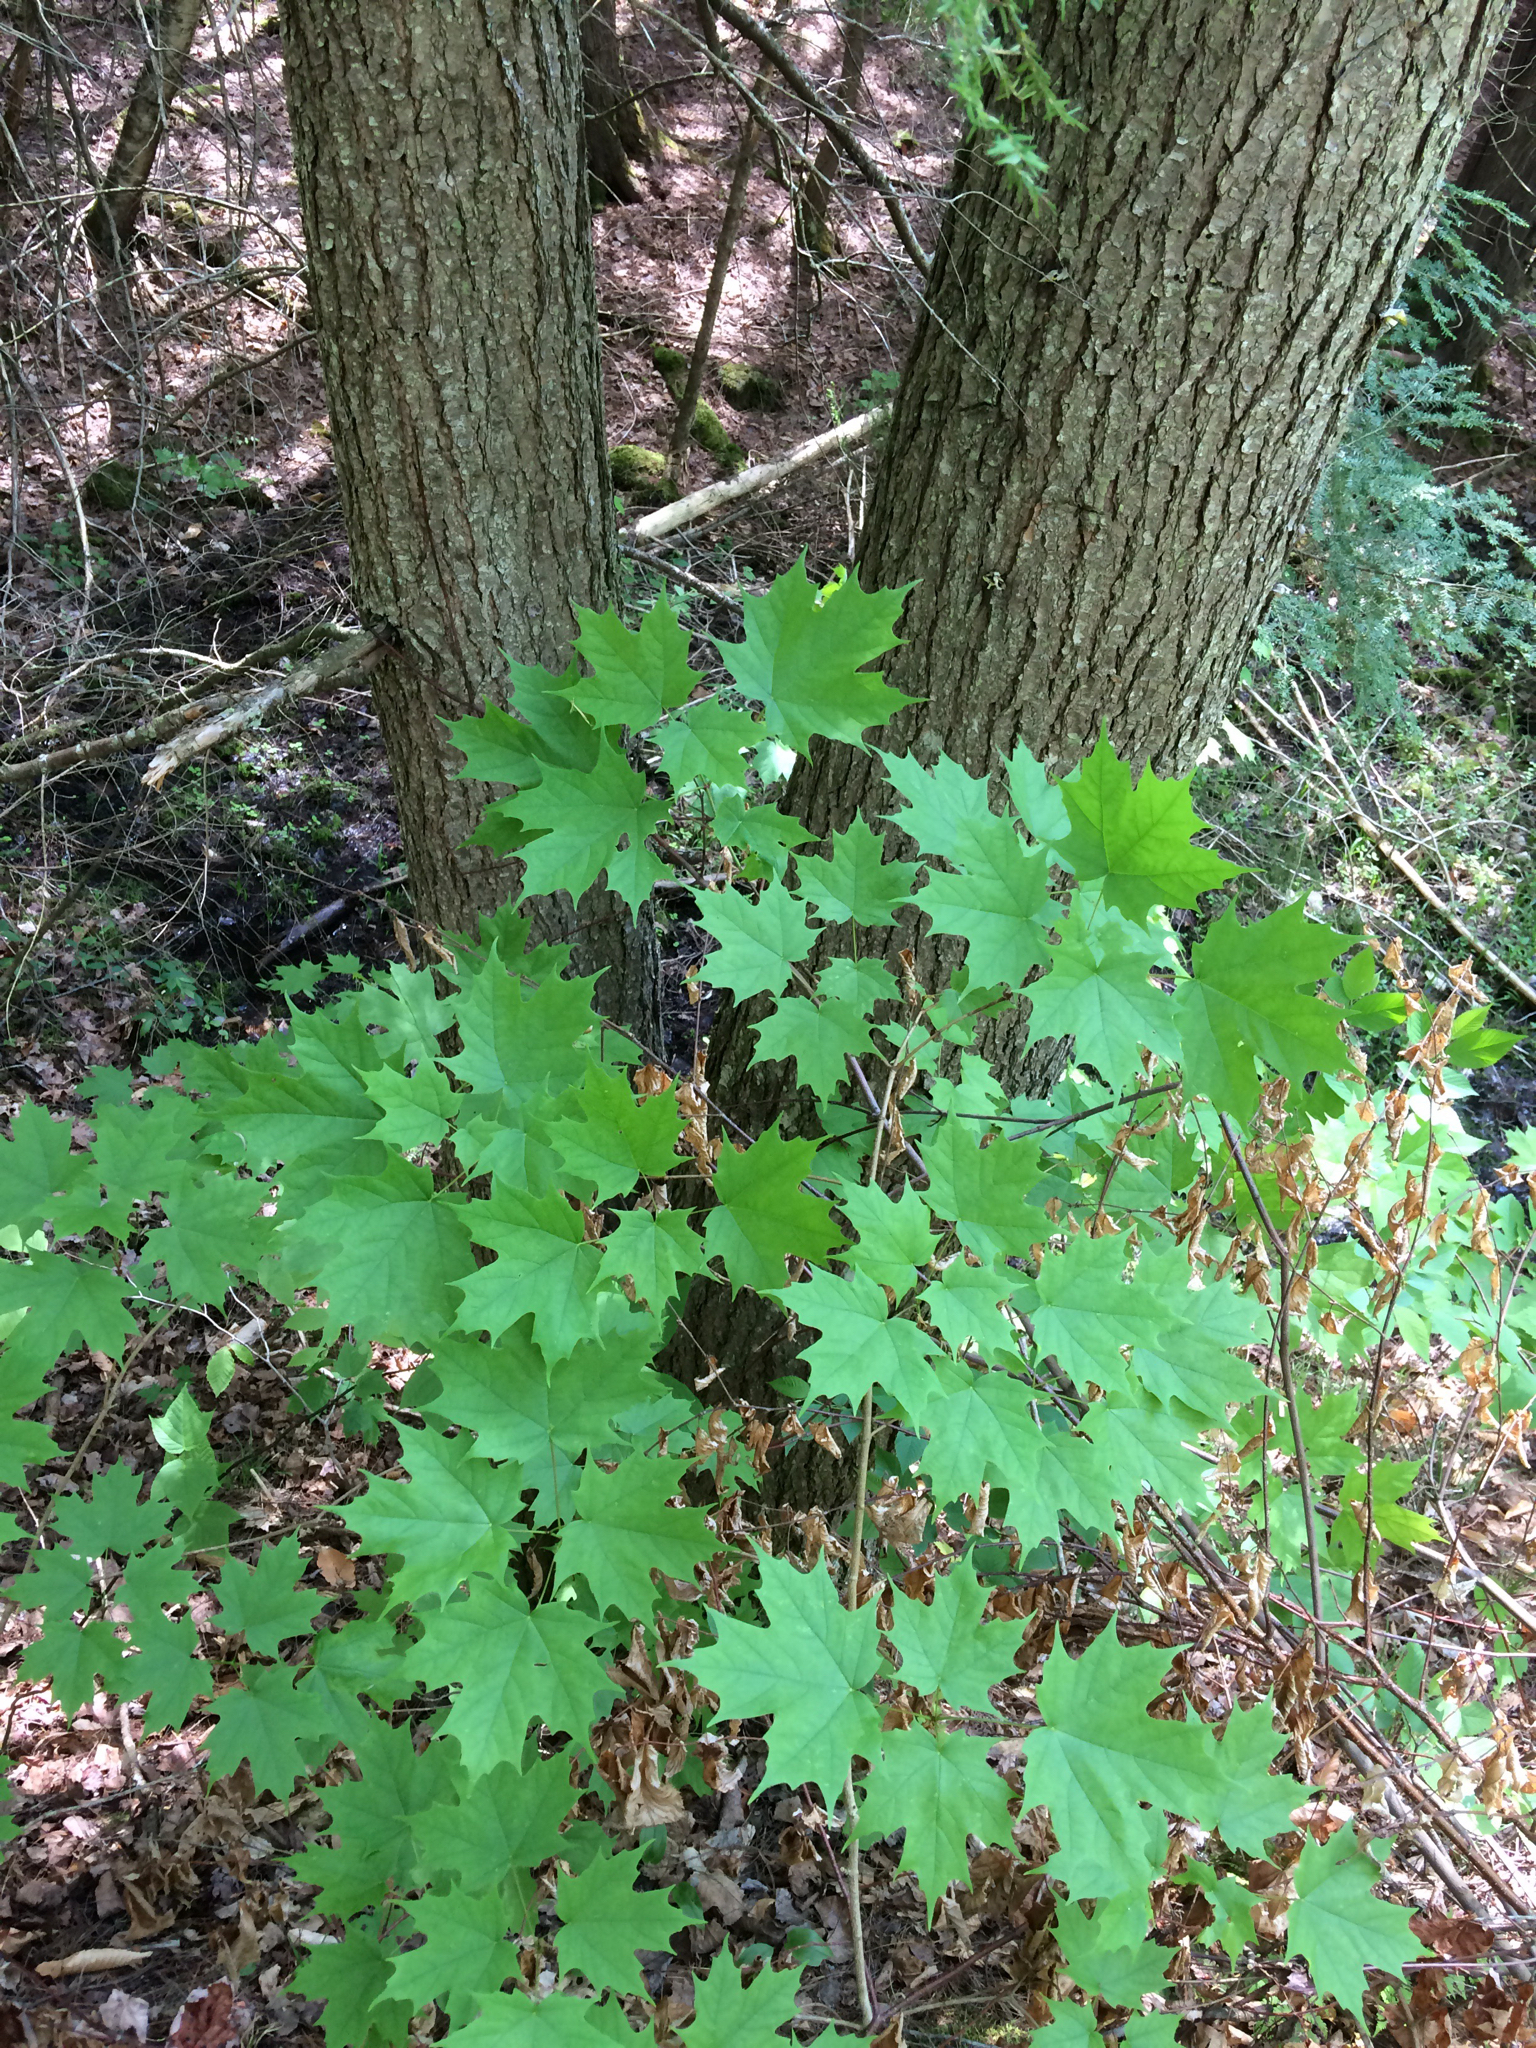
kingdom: Plantae
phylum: Tracheophyta
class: Magnoliopsida
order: Sapindales
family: Sapindaceae
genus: Acer
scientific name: Acer saccharum
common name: Sugar maple
